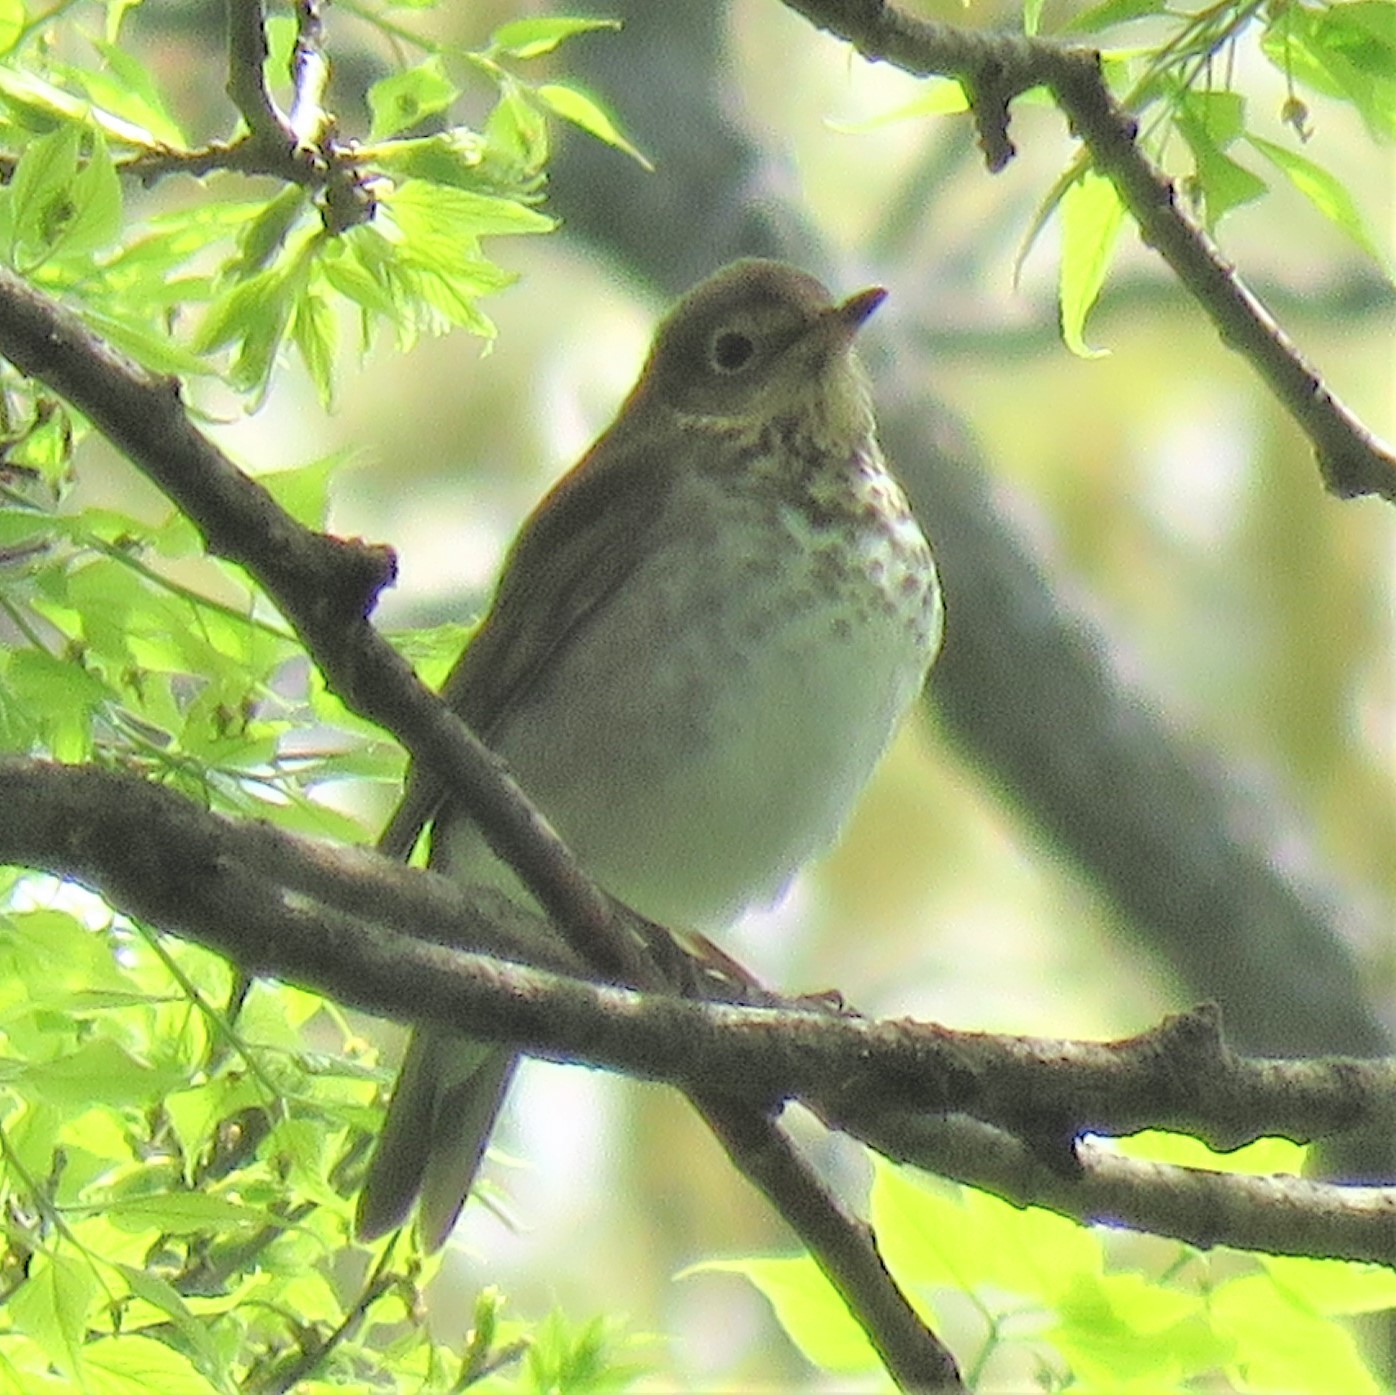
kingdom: Animalia
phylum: Chordata
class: Aves
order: Passeriformes
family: Turdidae
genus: Catharus
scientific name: Catharus ustulatus
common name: Swainson's thrush
